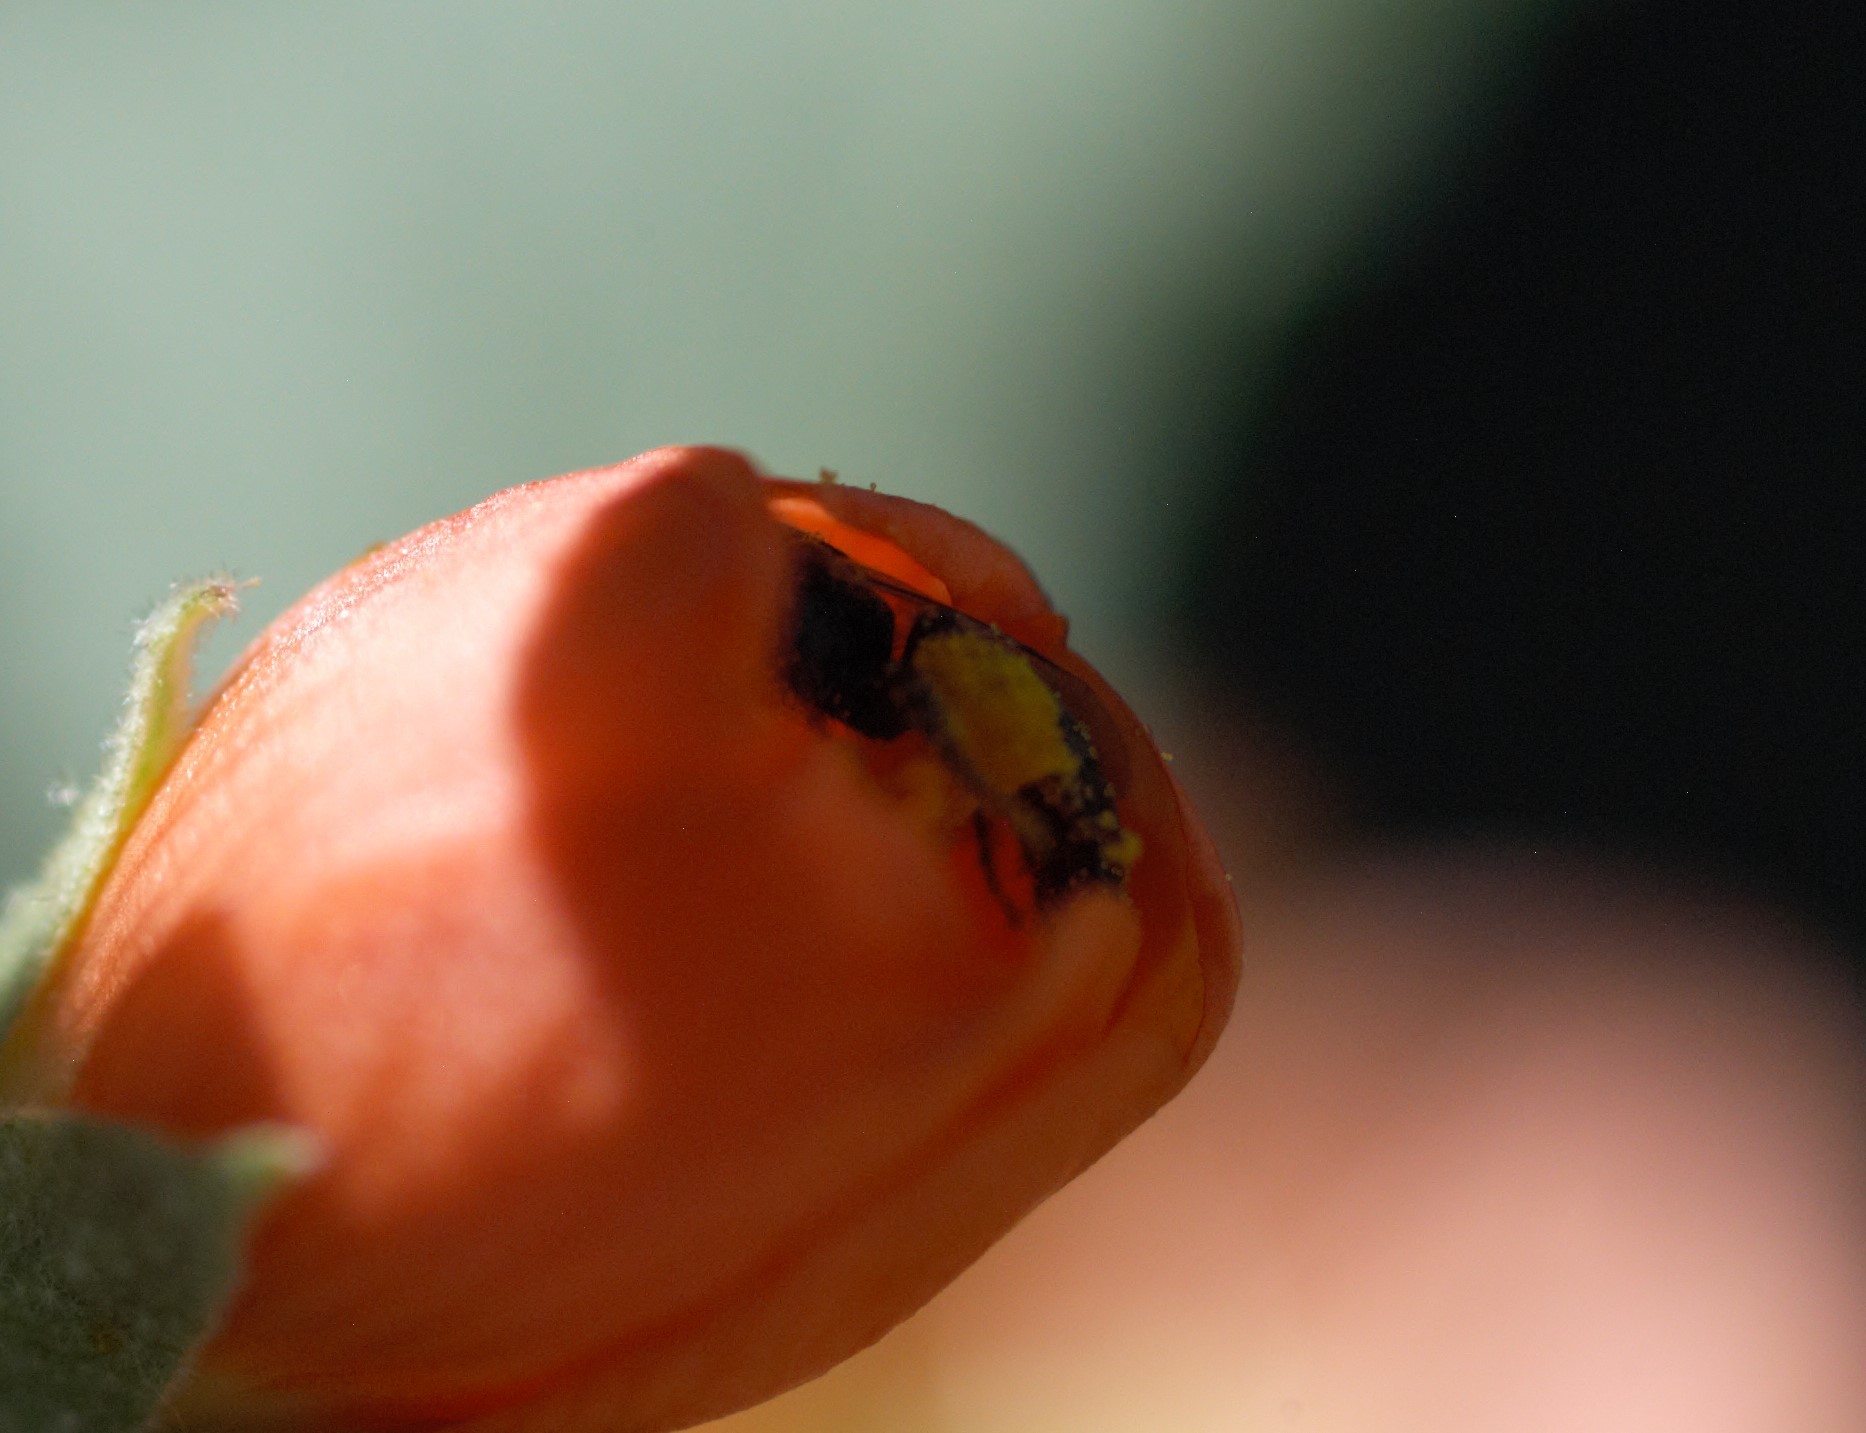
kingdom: Animalia
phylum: Arthropoda
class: Insecta
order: Hymenoptera
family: Andrenidae
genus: Macrotera
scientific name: Macrotera latior
